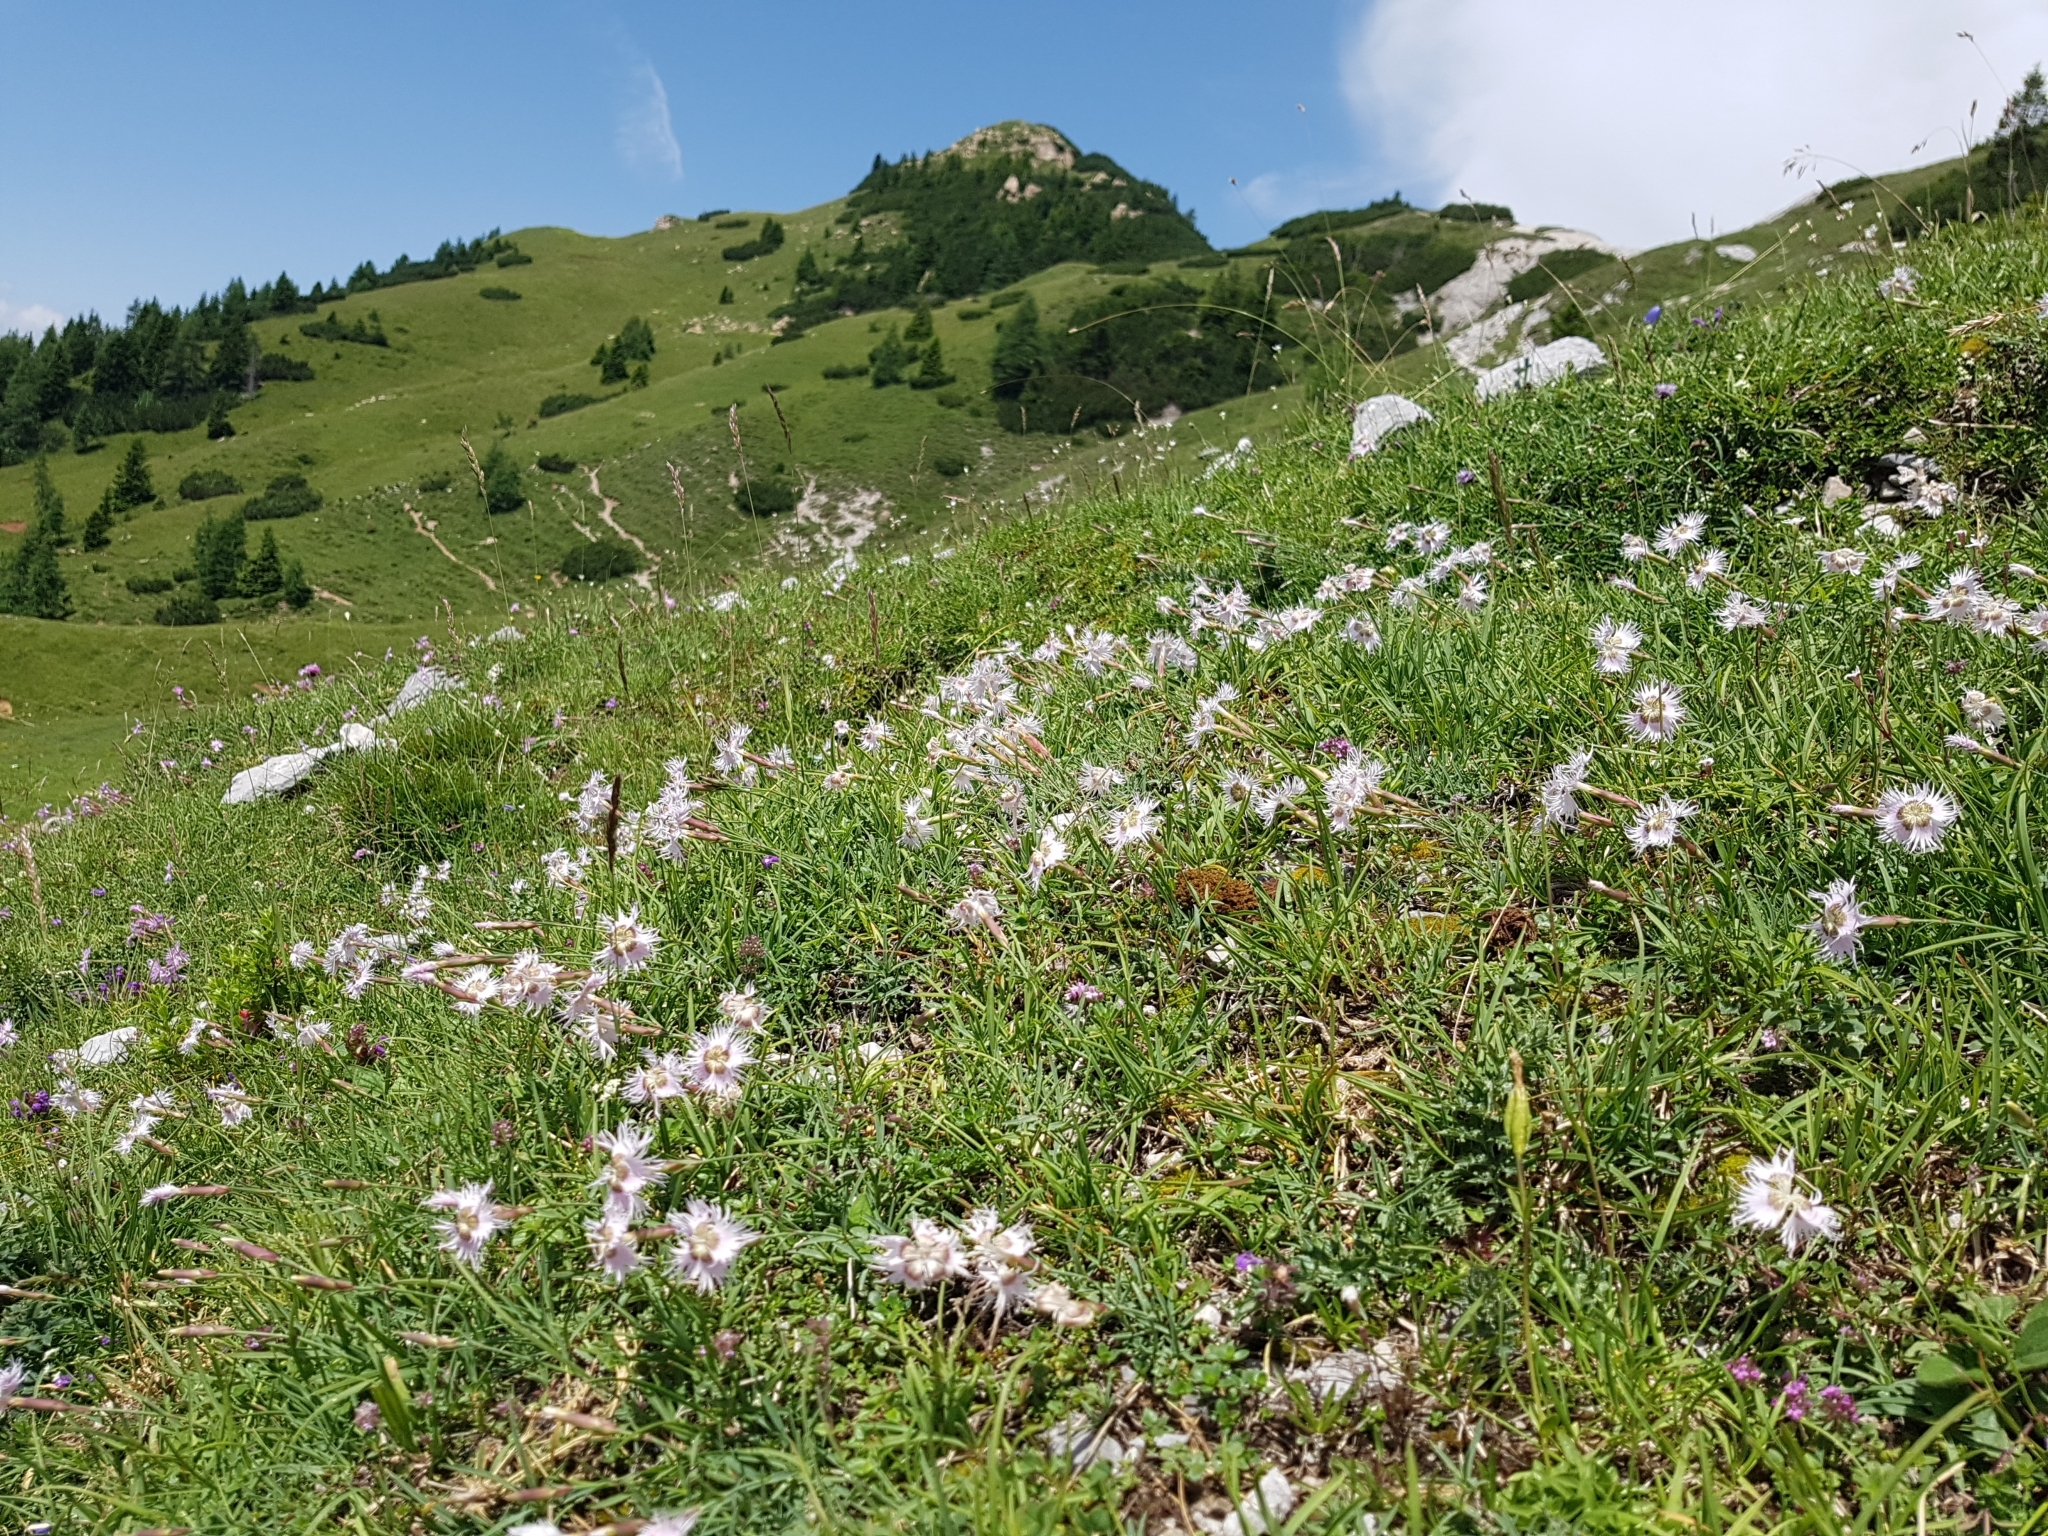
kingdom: Plantae
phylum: Tracheophyta
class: Magnoliopsida
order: Caryophyllales
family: Caryophyllaceae
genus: Dianthus
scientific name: Dianthus sternbergii
